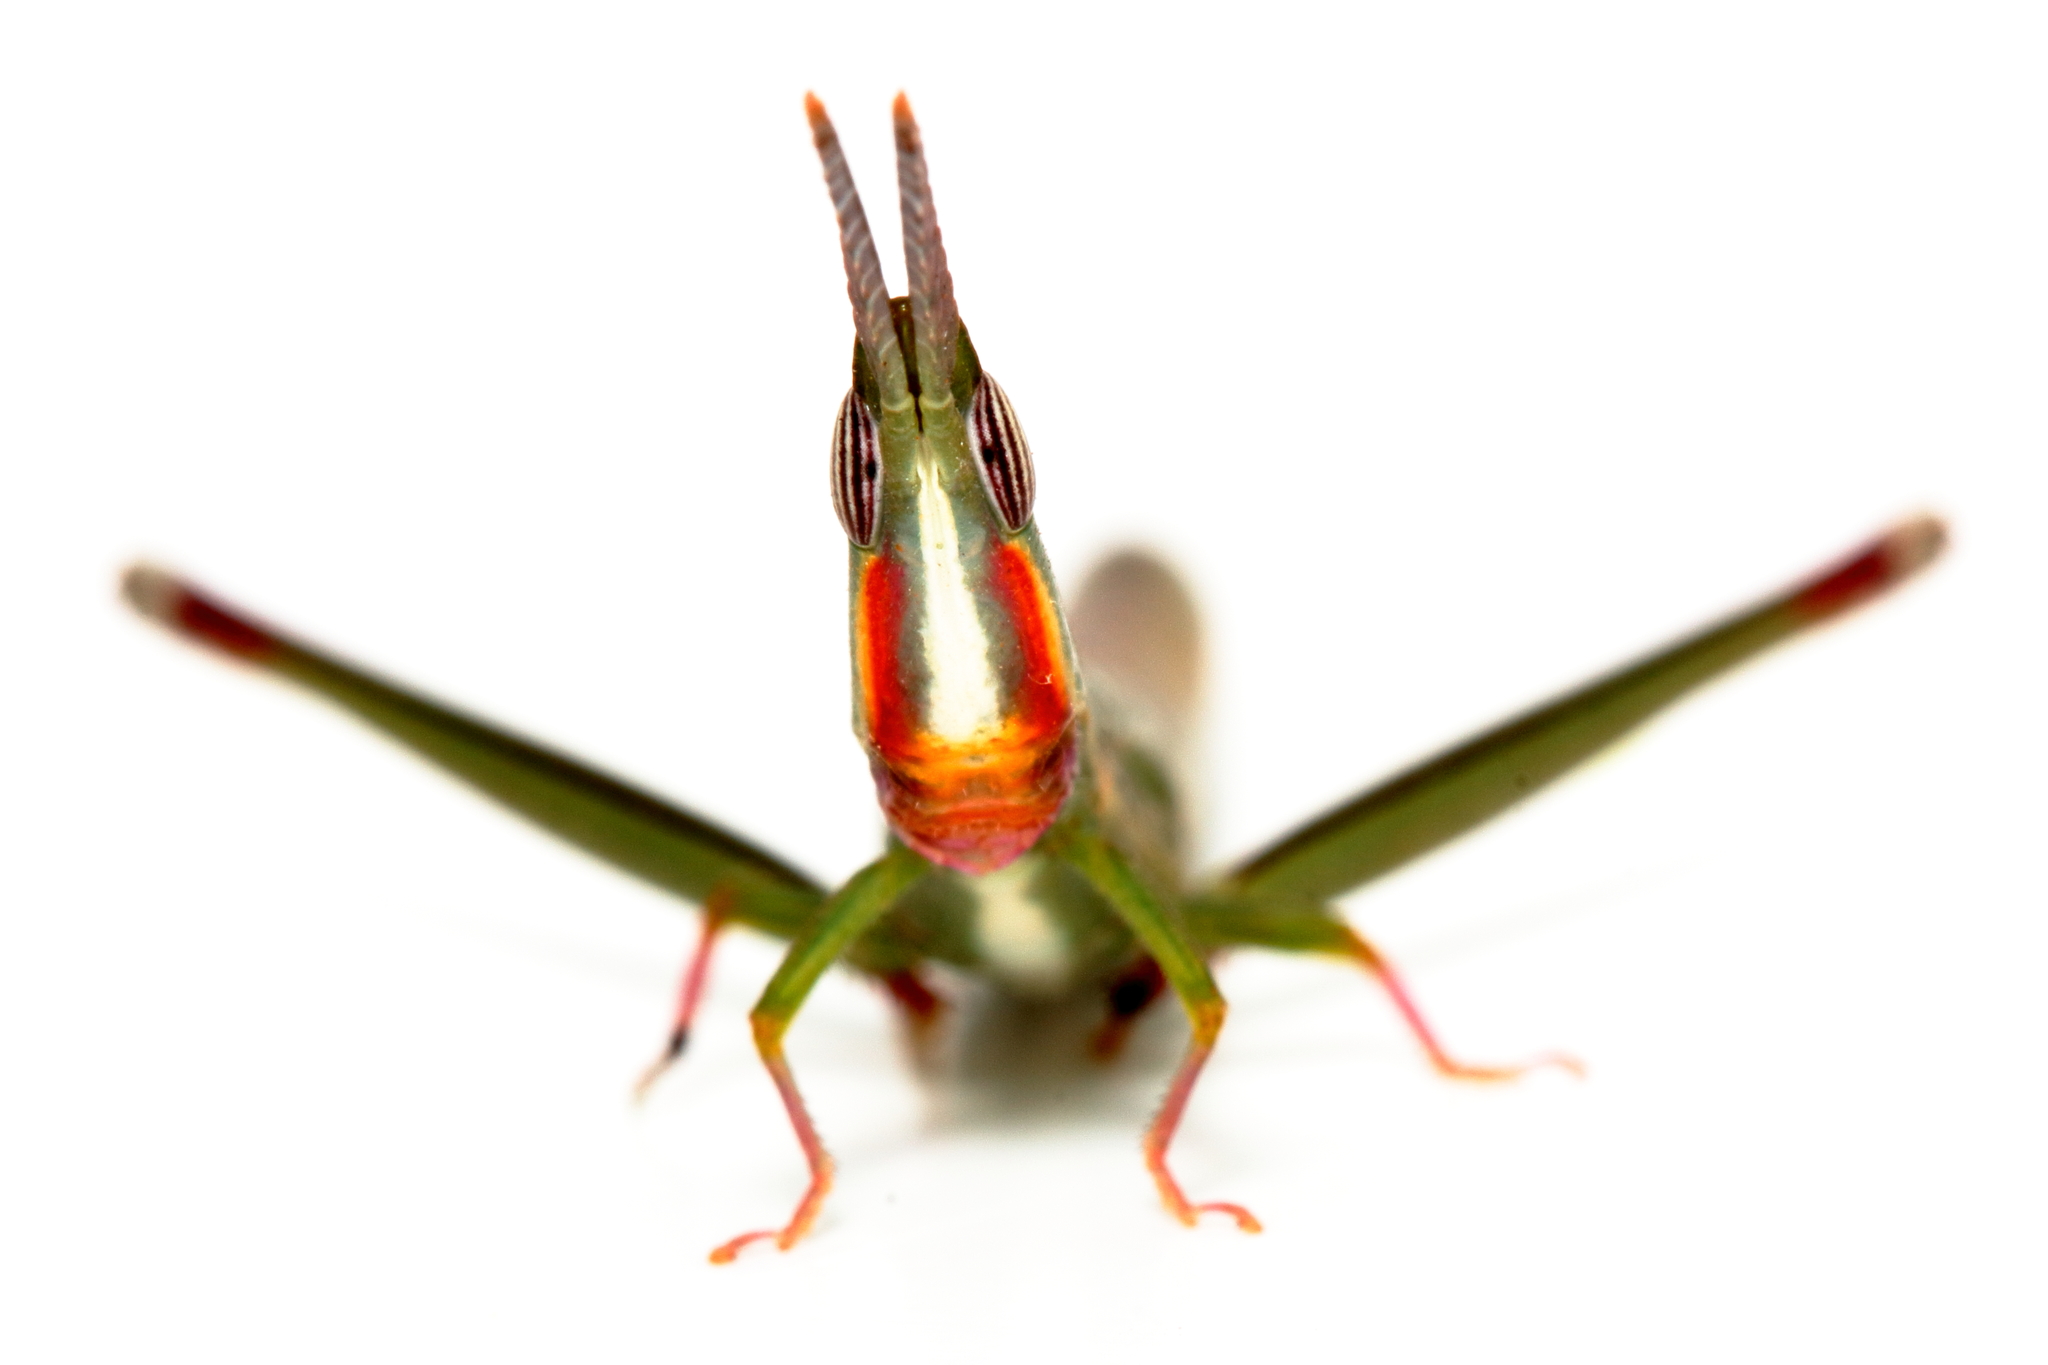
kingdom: Animalia
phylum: Arthropoda
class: Insecta
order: Orthoptera
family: Morabidae
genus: Warramaba
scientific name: Warramaba whitei
